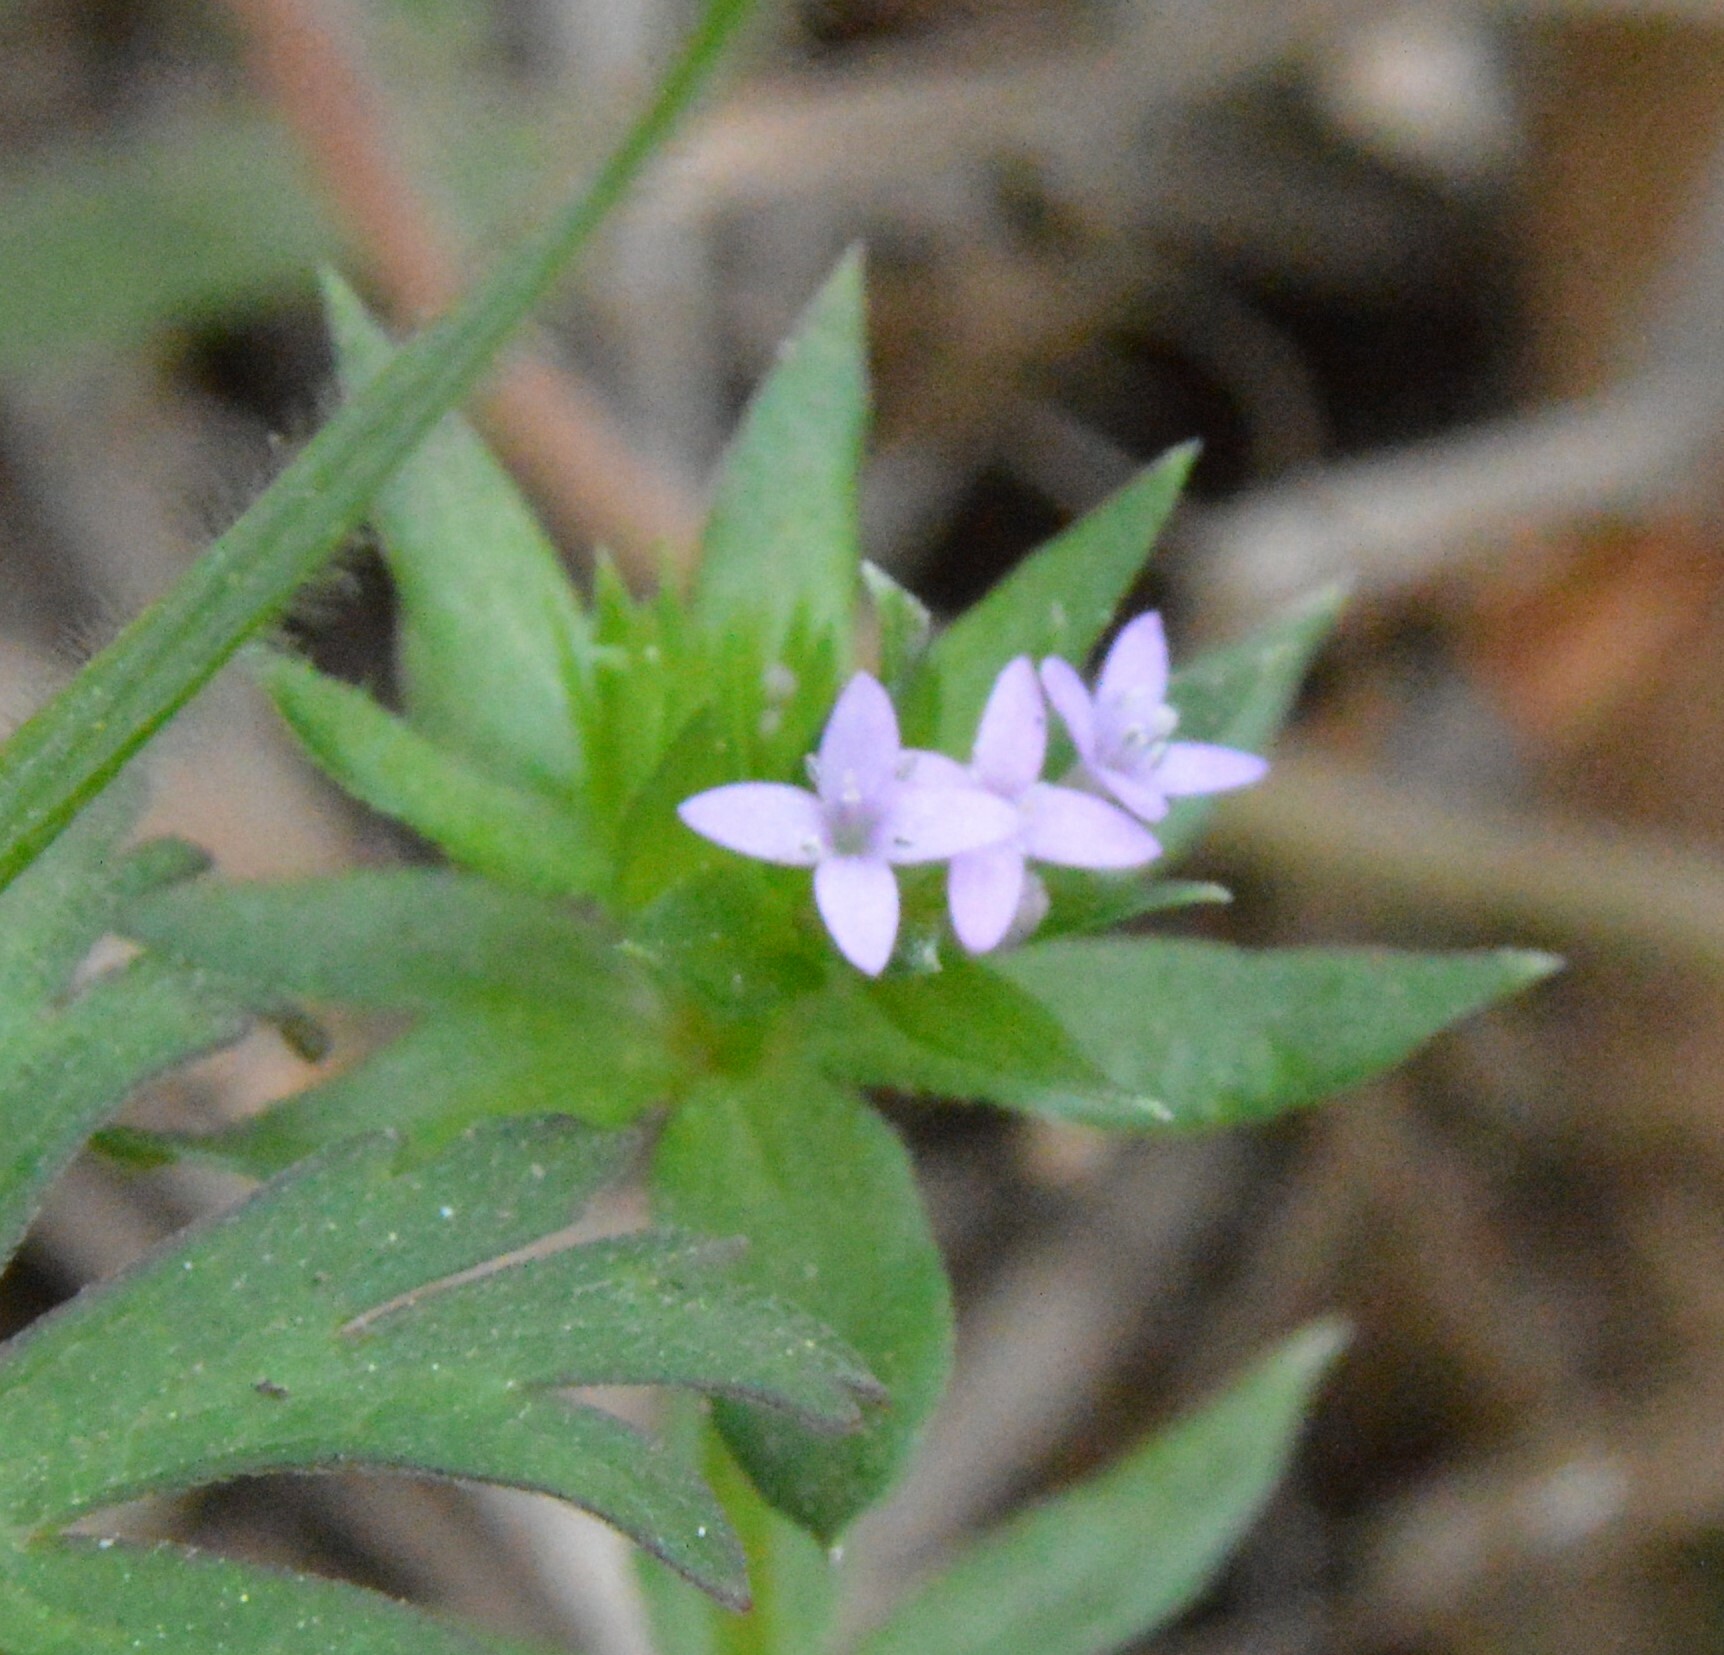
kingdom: Plantae
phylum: Tracheophyta
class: Magnoliopsida
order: Gentianales
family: Rubiaceae
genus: Sherardia
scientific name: Sherardia arvensis
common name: Field madder
